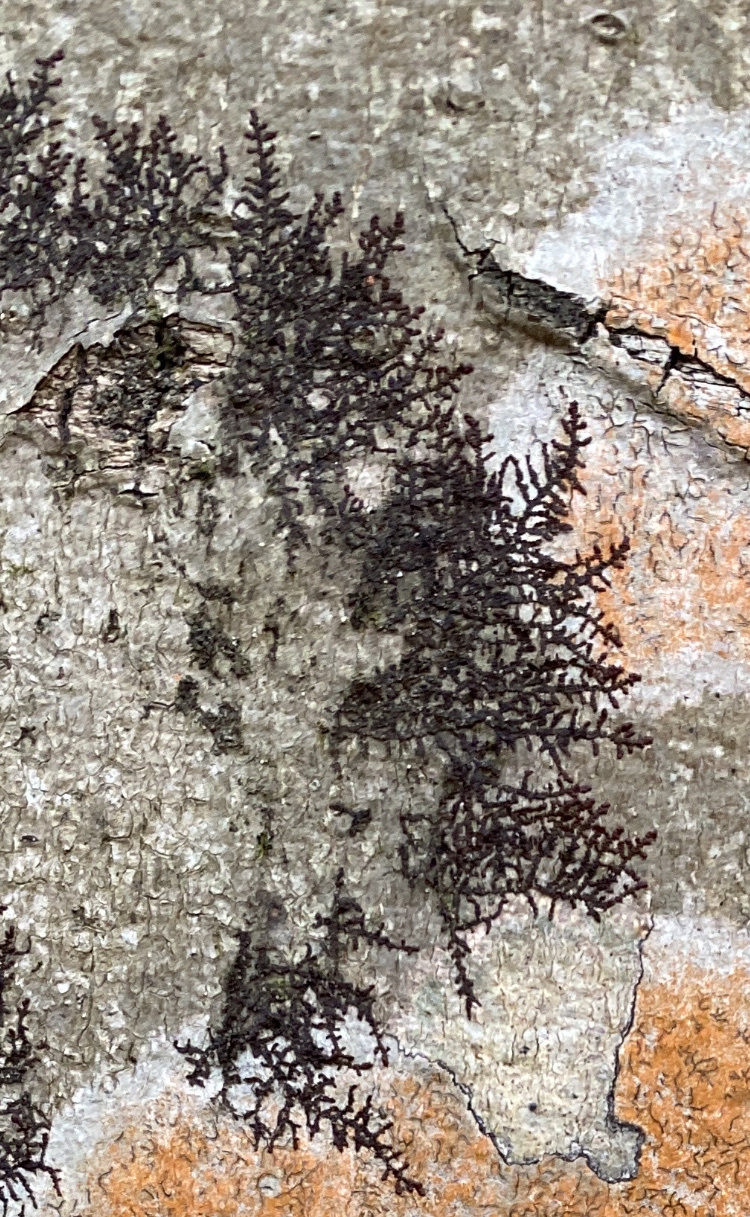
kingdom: Plantae
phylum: Marchantiophyta
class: Jungermanniopsida
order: Porellales
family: Frullaniaceae
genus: Frullania
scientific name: Frullania eboracensis
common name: New york scalewort
